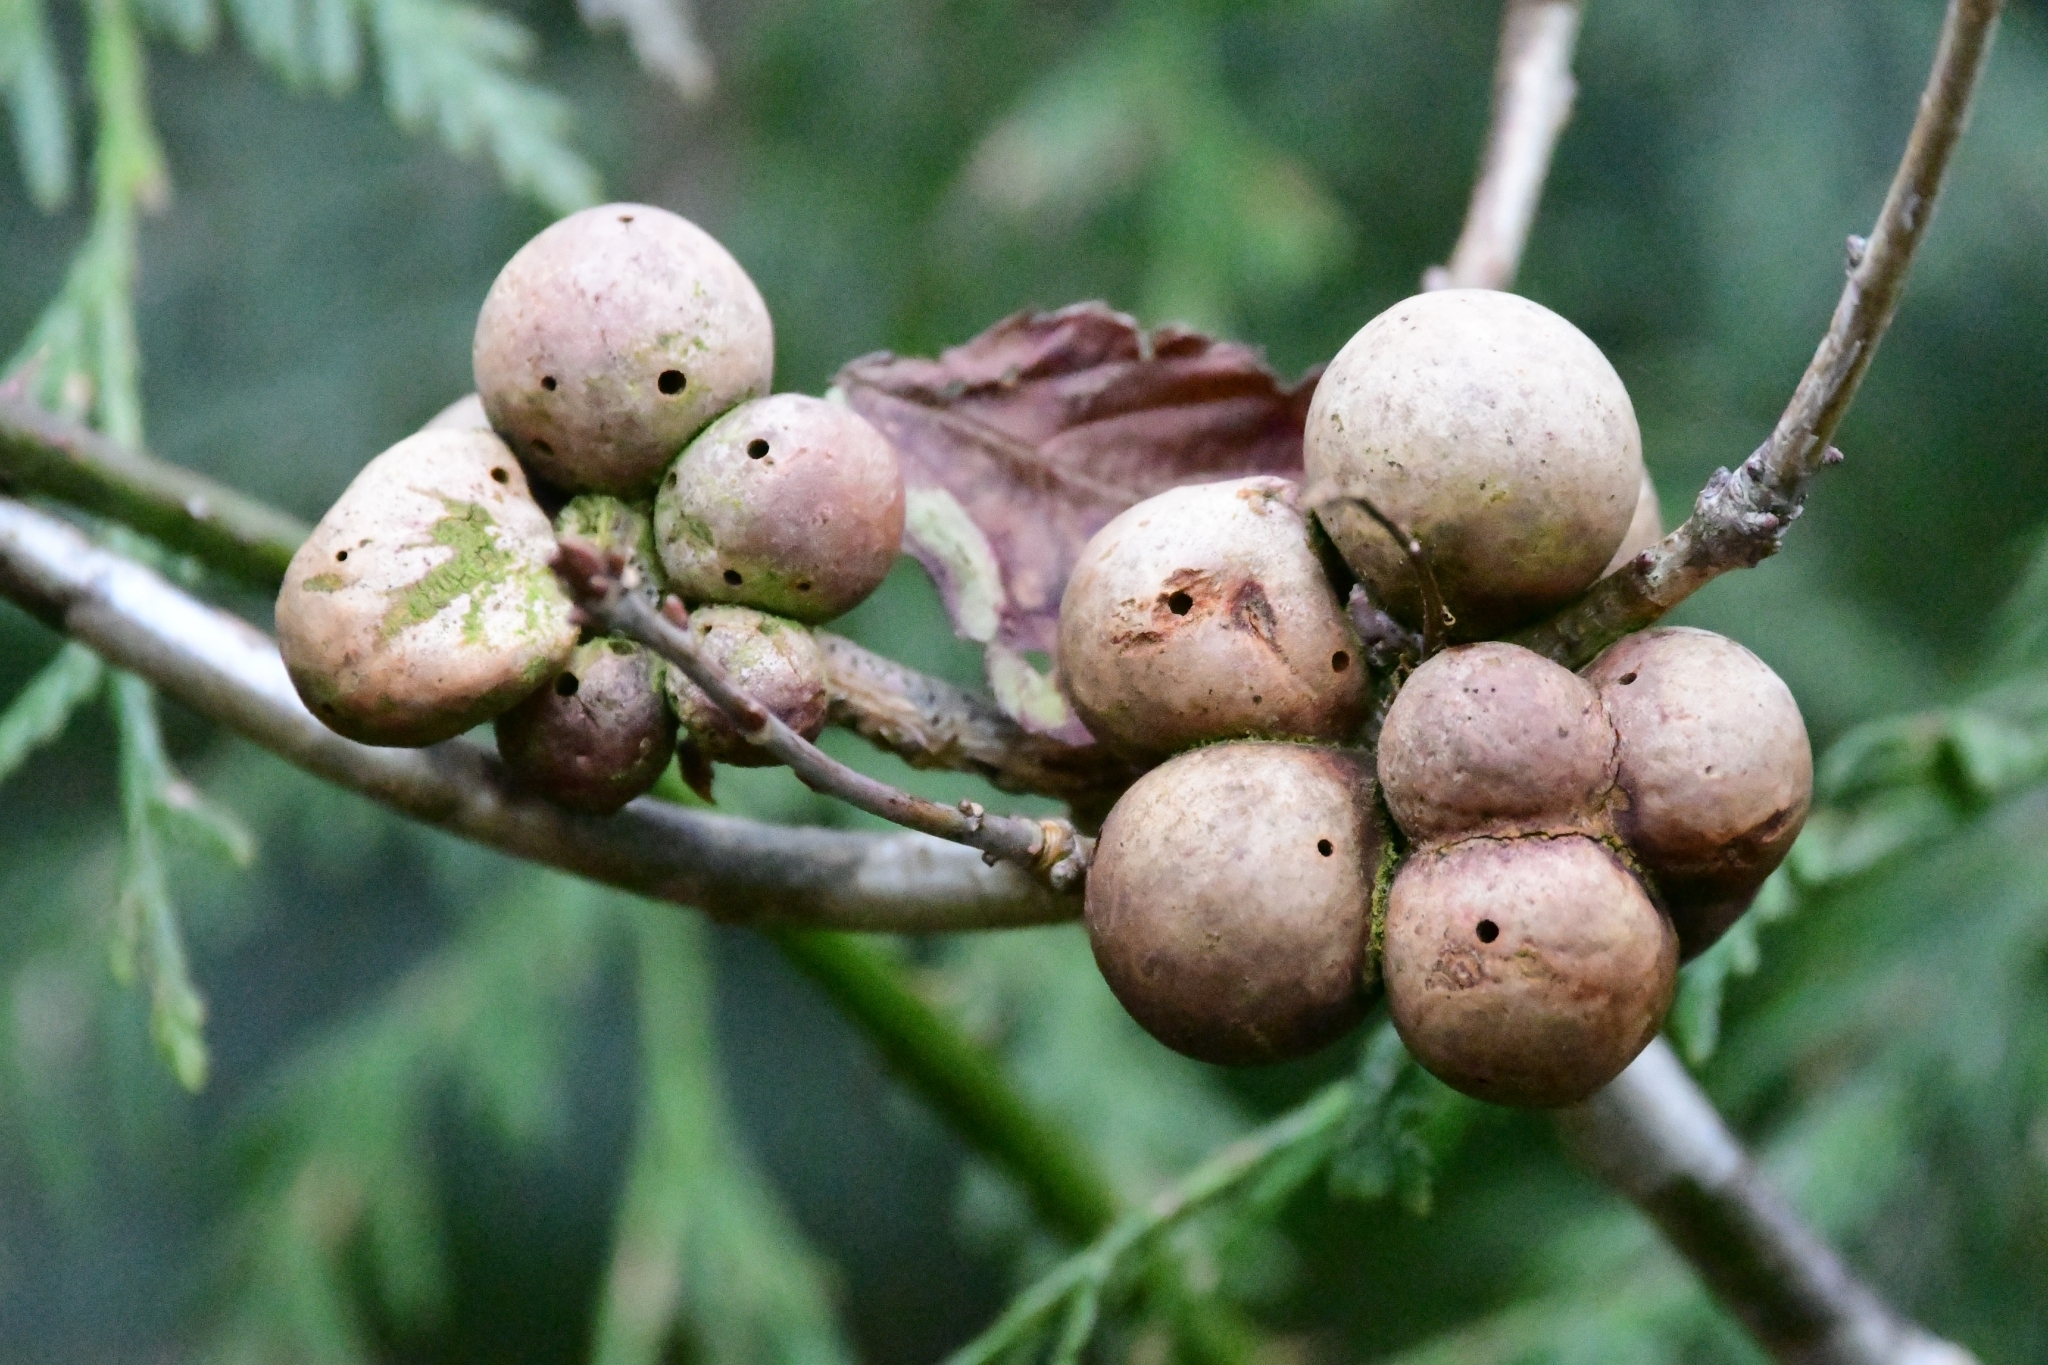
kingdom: Animalia
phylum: Arthropoda
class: Insecta
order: Hymenoptera
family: Cynipidae
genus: Andricus
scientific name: Andricus kollari
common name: Marble gall
